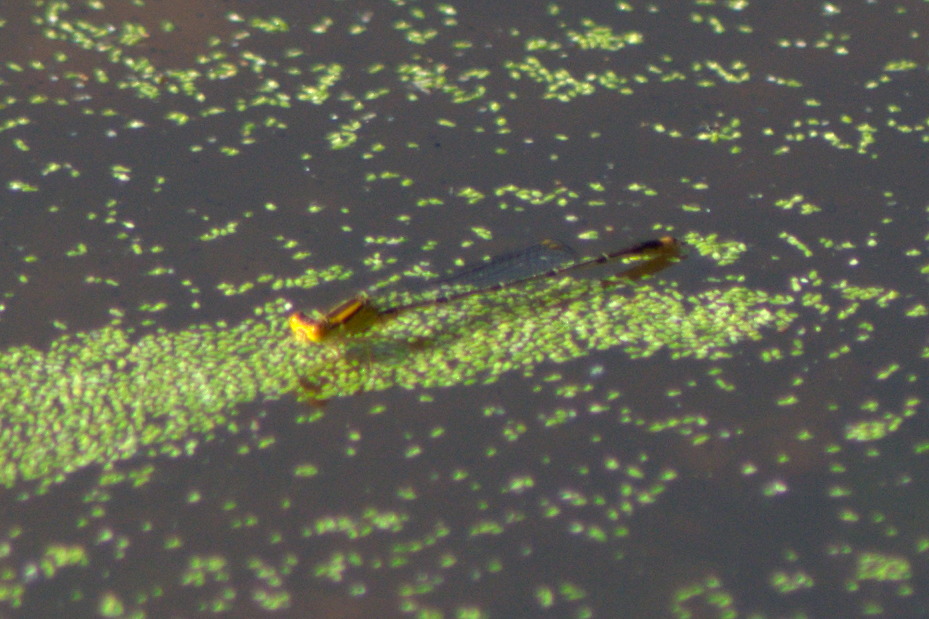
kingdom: Animalia
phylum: Arthropoda
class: Insecta
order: Odonata
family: Coenagrionidae
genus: Enallagma
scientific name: Enallagma signatum
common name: Orange bluet
